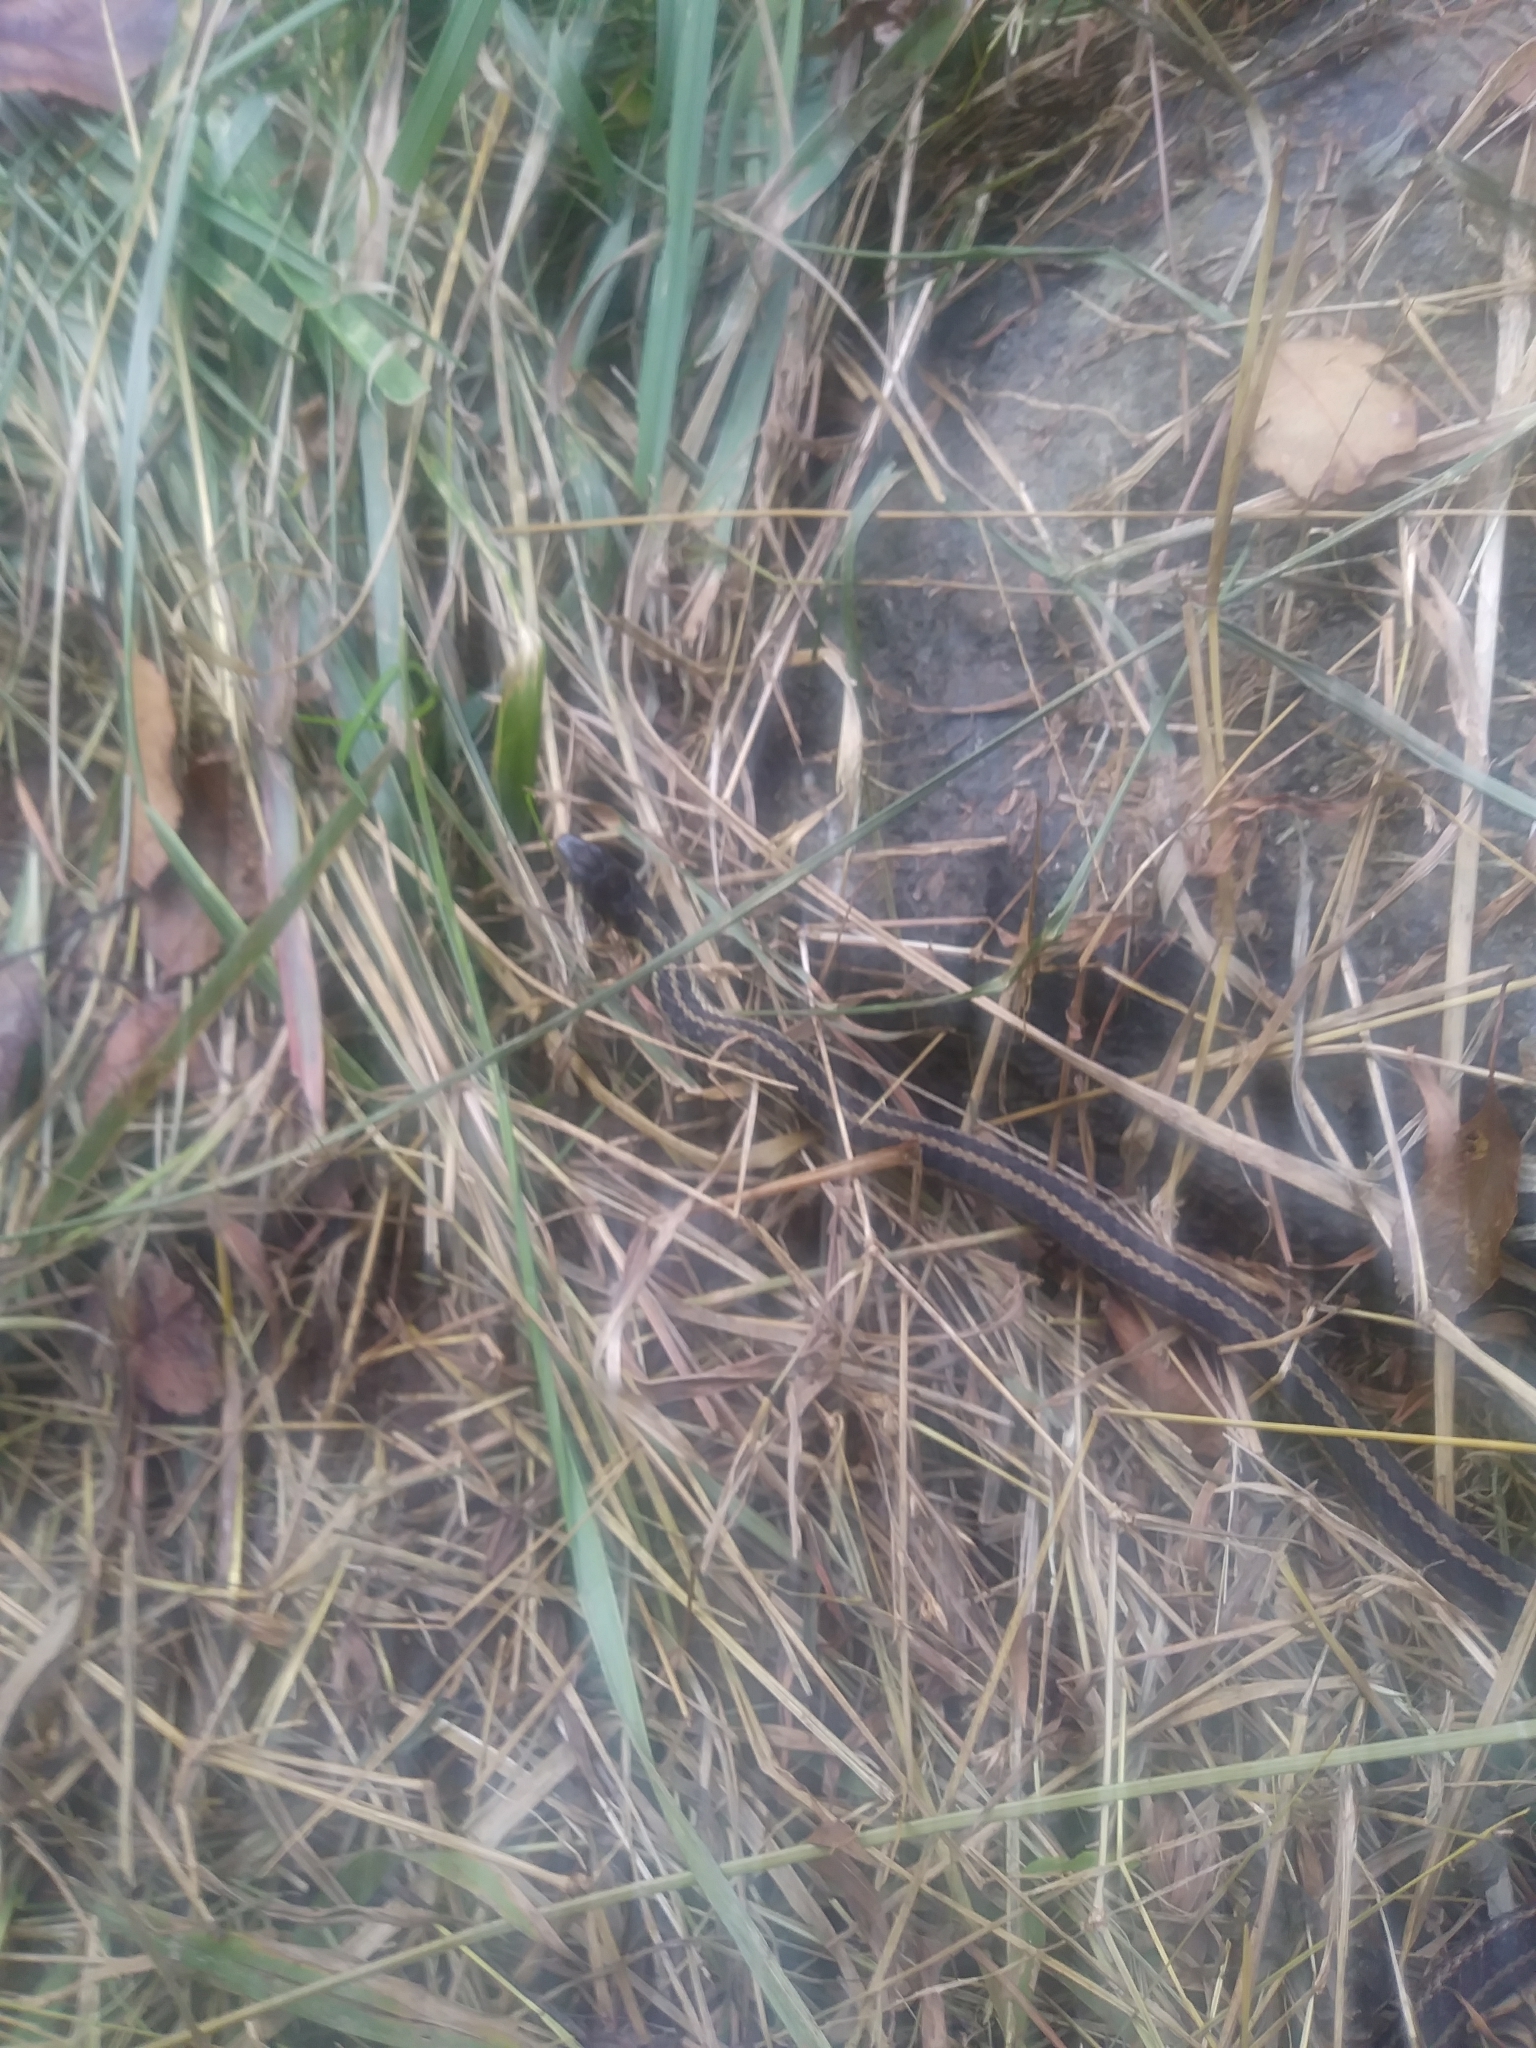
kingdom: Animalia
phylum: Chordata
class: Squamata
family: Colubridae
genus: Thamnophis
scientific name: Thamnophis sirtalis
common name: Common garter snake
